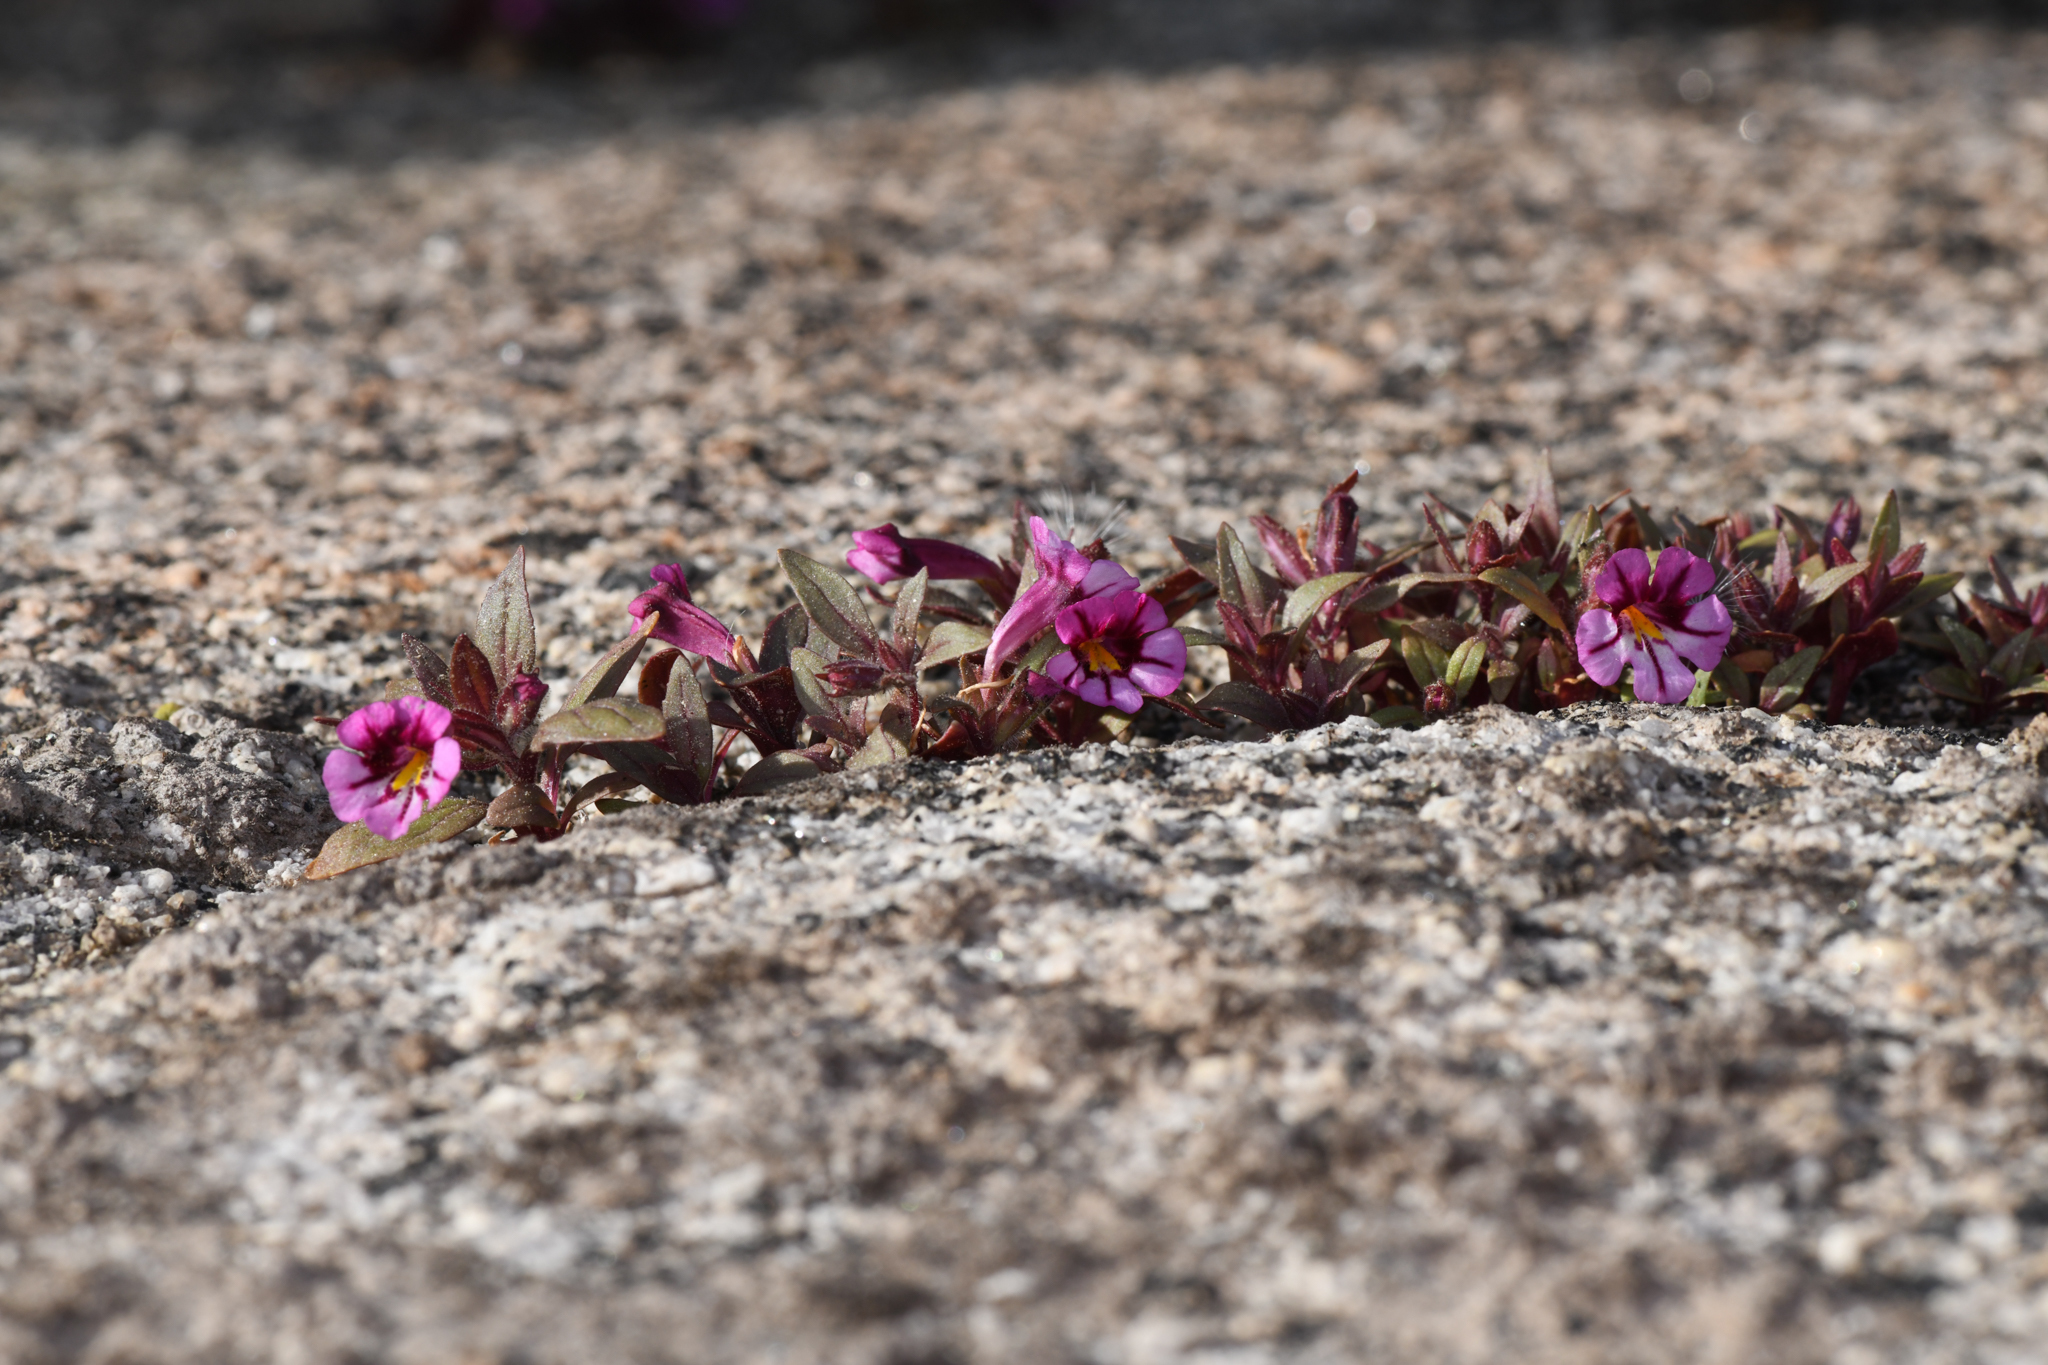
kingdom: Plantae
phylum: Tracheophyta
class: Magnoliopsida
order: Lamiales
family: Phrymaceae
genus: Diplacus
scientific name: Diplacus graniticola
